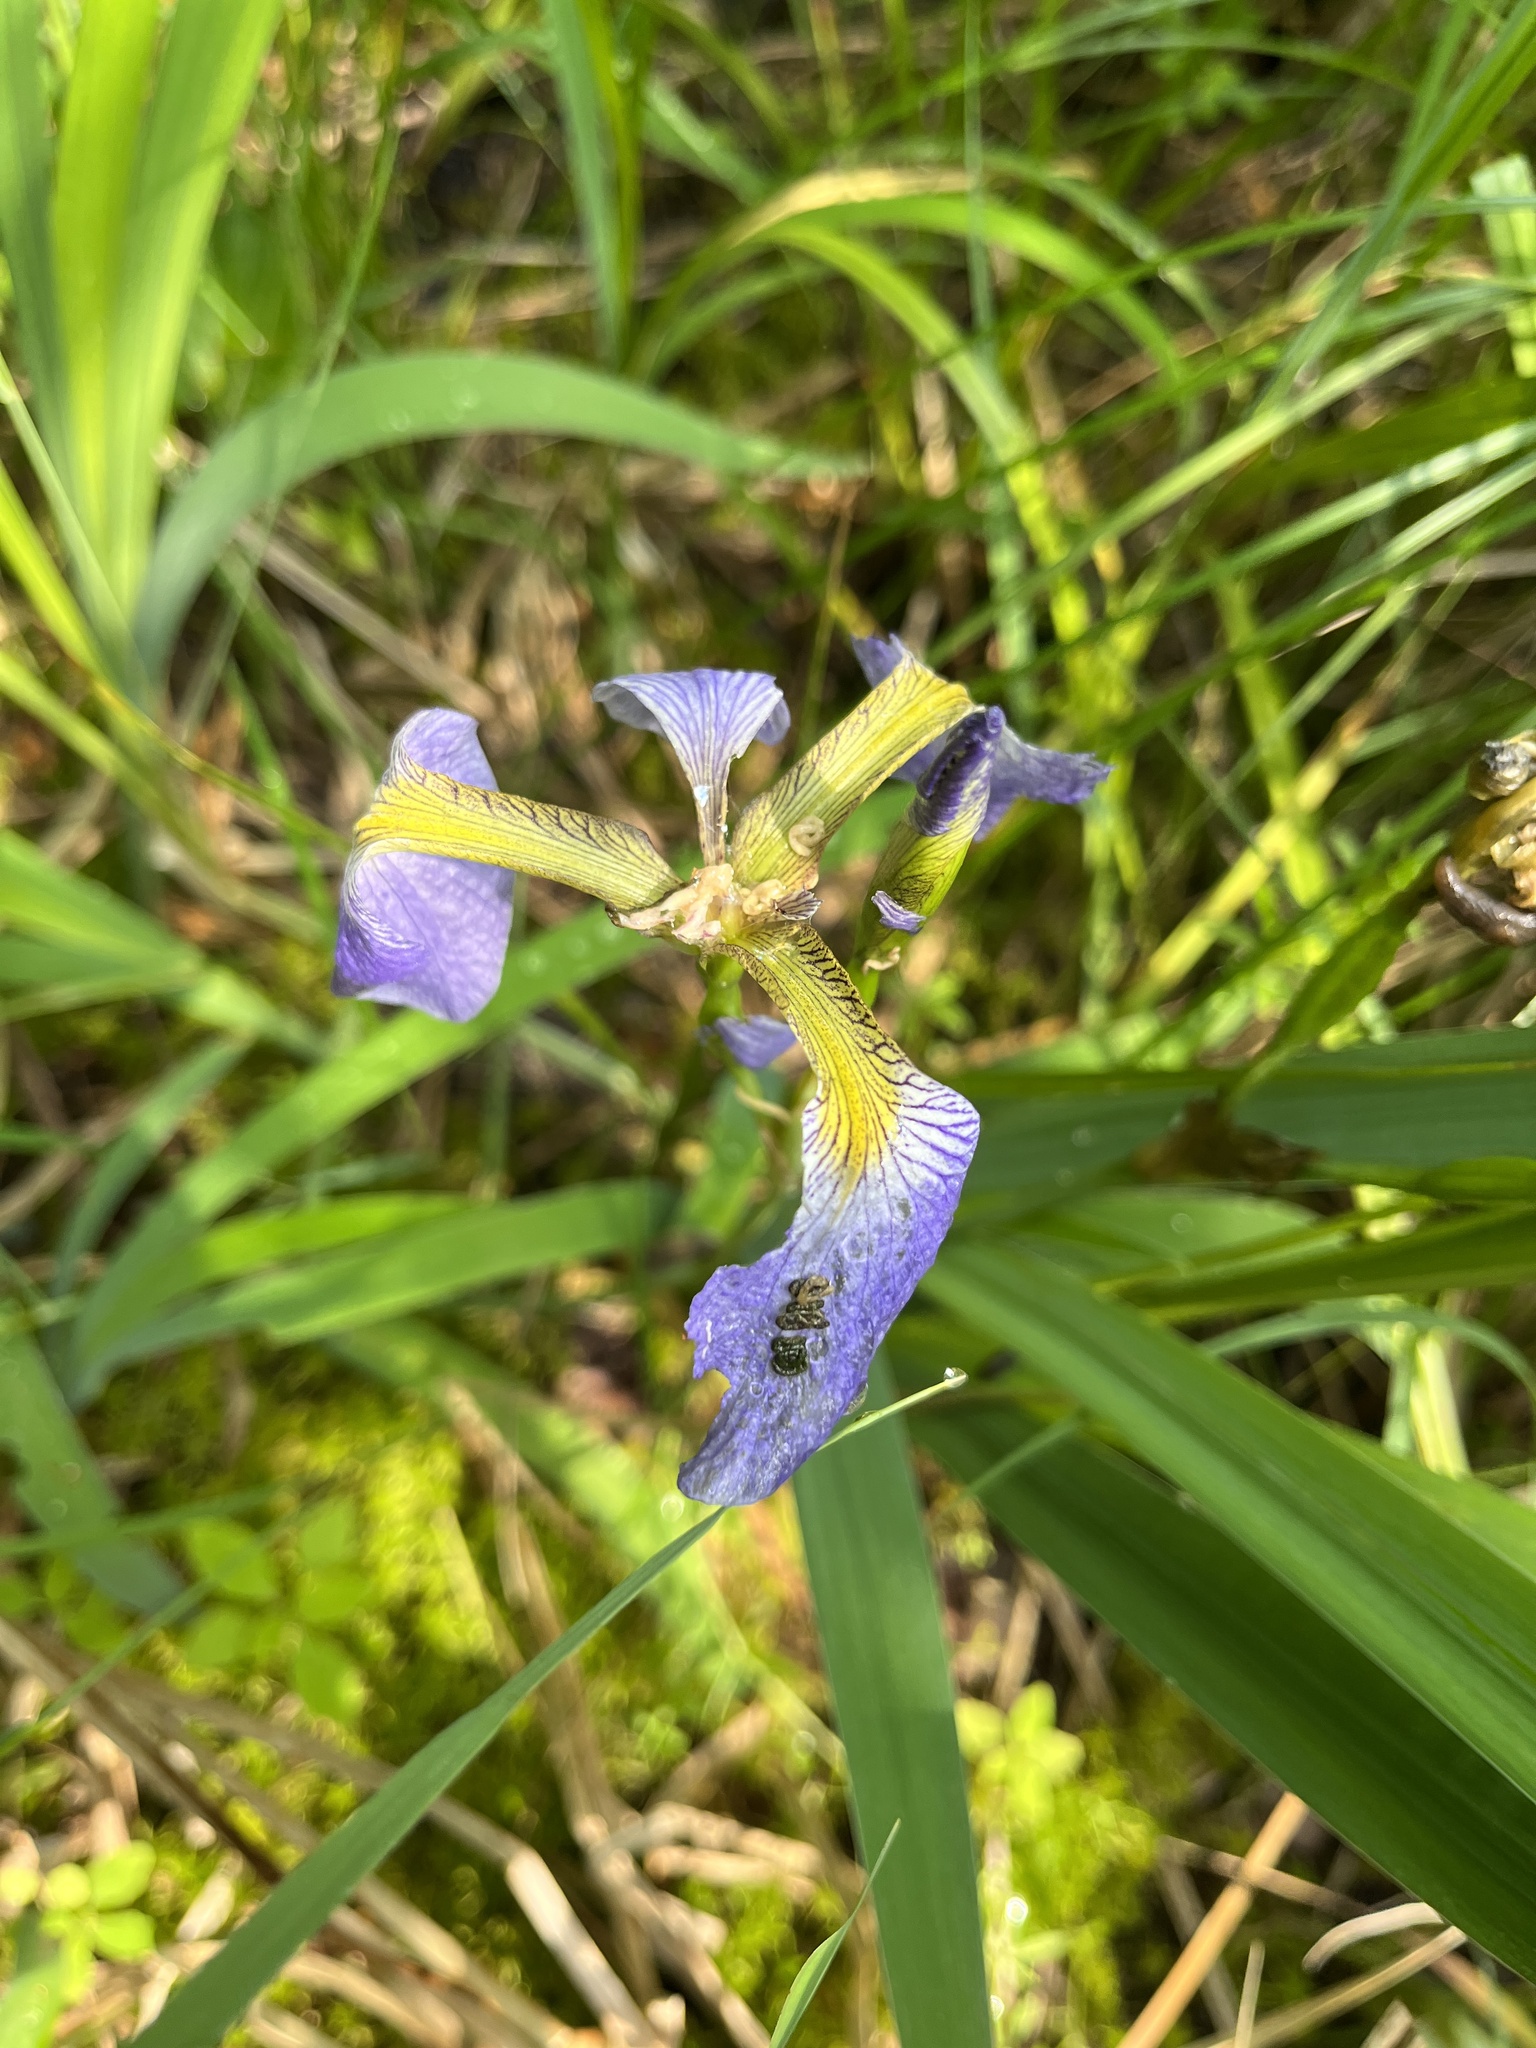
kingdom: Plantae
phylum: Tracheophyta
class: Liliopsida
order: Asparagales
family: Iridaceae
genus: Iris
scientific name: Iris versicolor
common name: Purple iris
